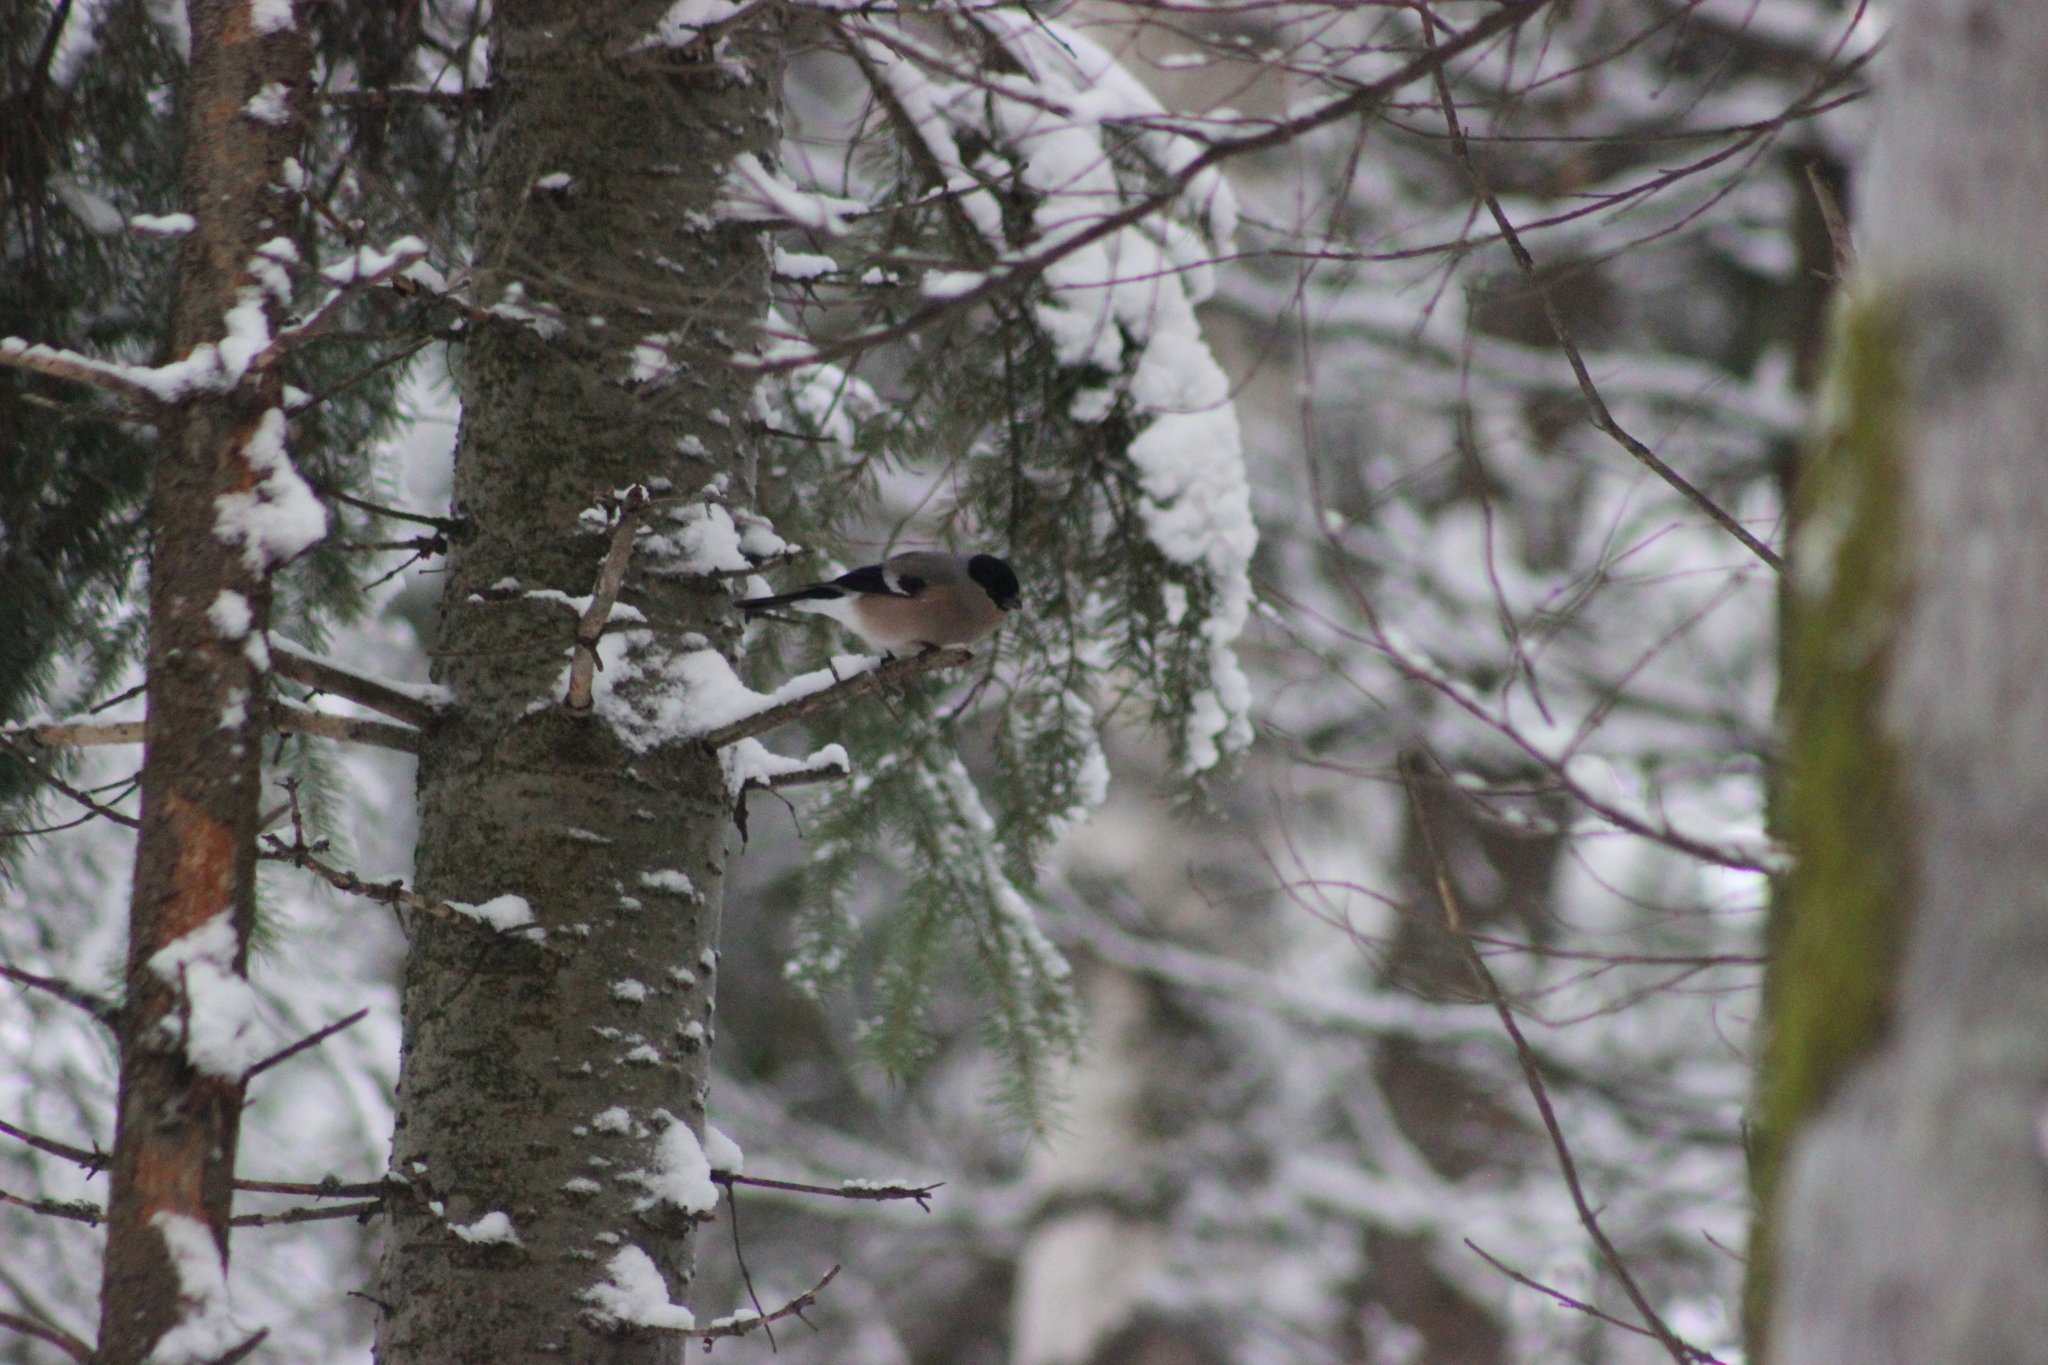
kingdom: Animalia
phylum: Chordata
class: Aves
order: Passeriformes
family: Fringillidae
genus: Pyrrhula
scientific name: Pyrrhula pyrrhula
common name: Eurasian bullfinch
